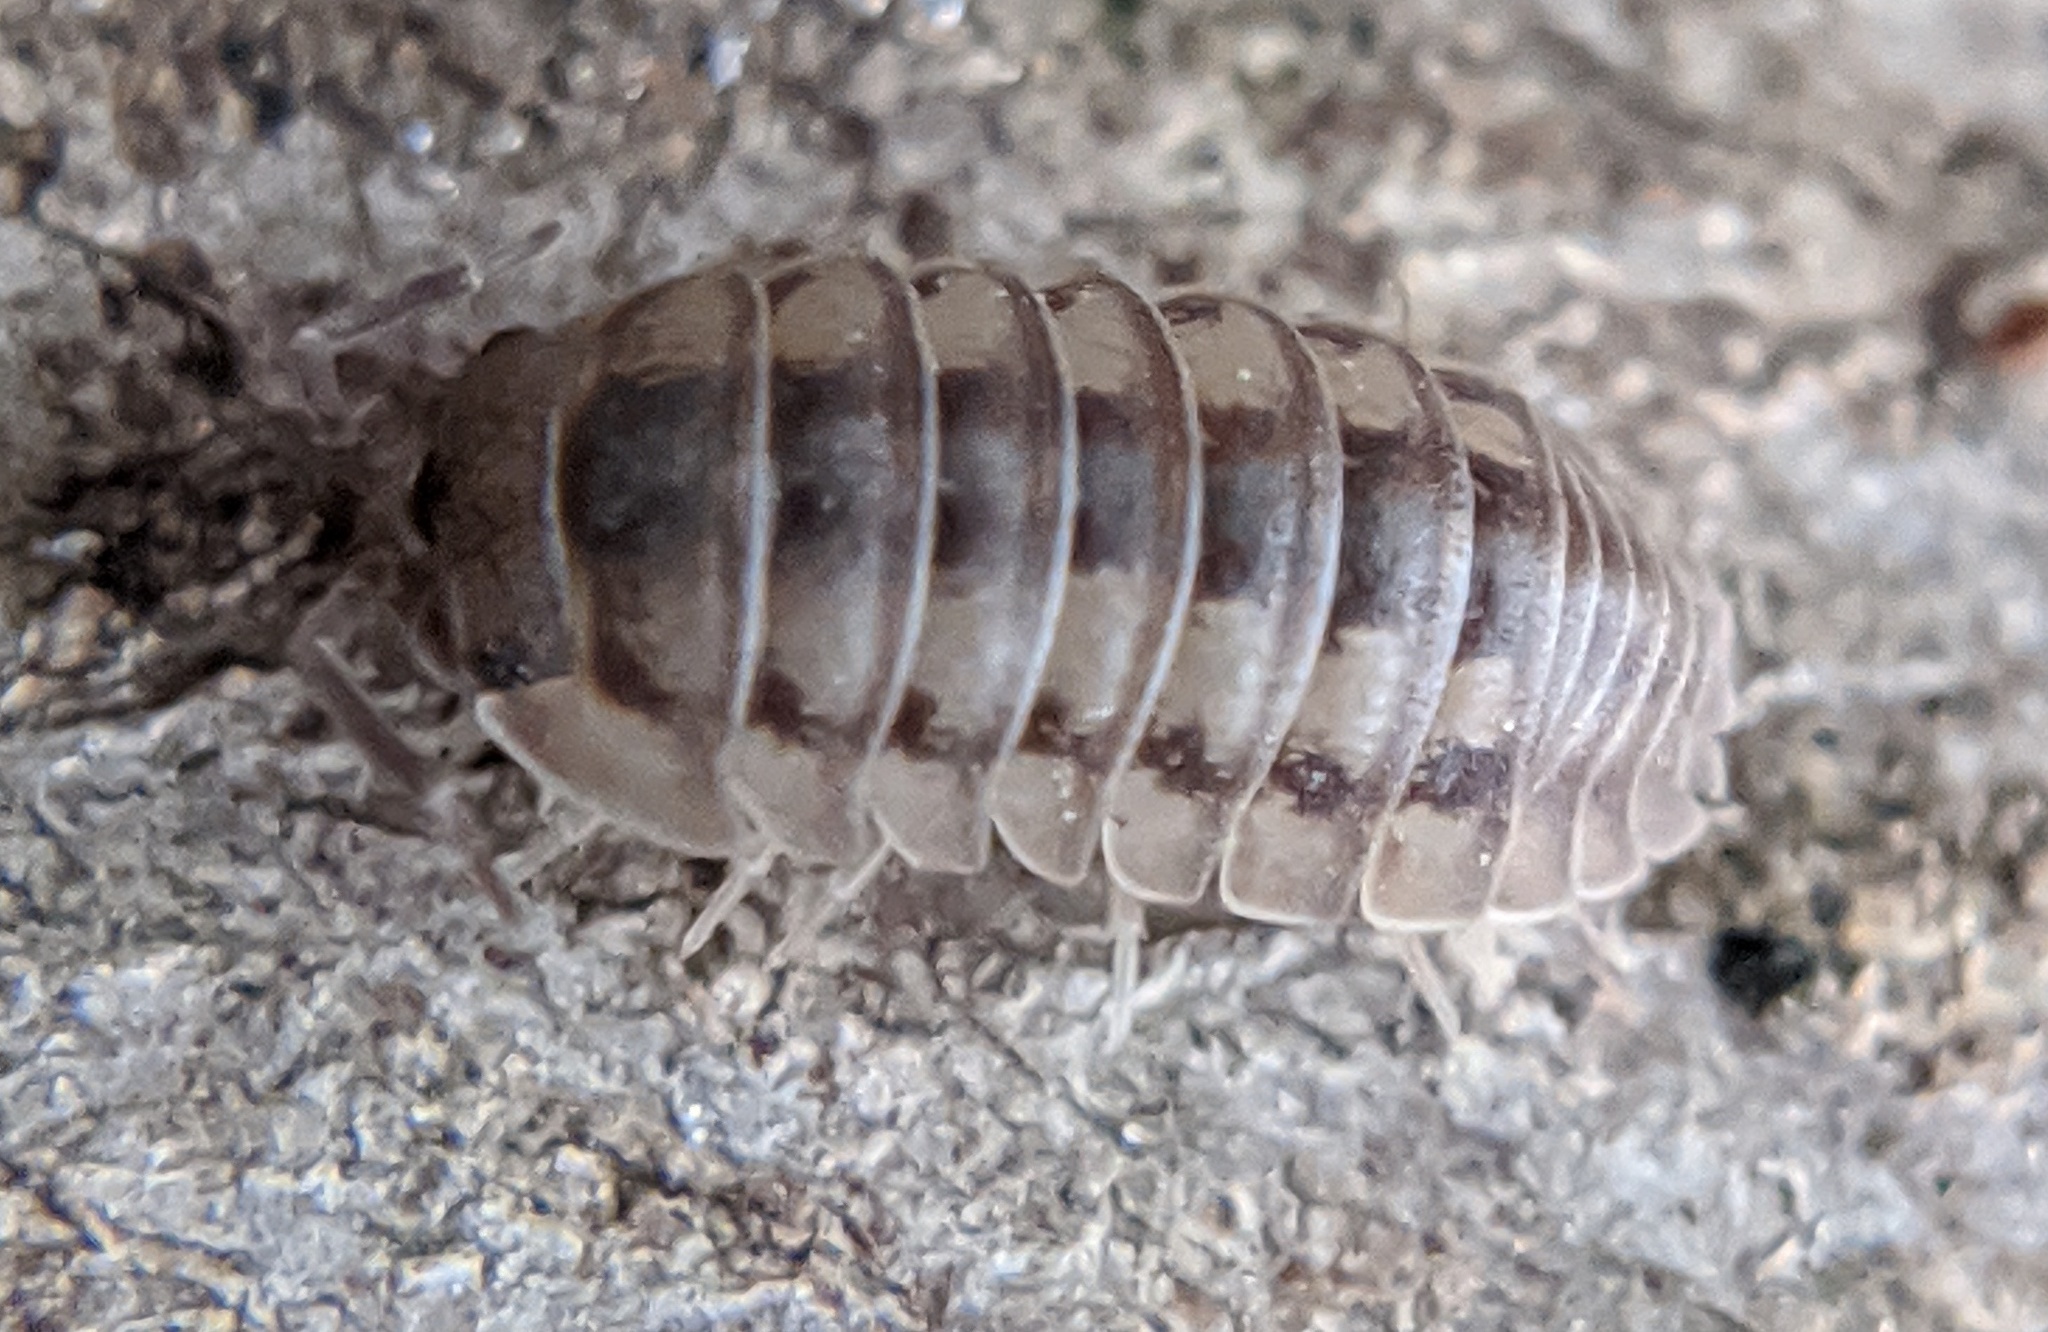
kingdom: Animalia
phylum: Arthropoda
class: Malacostraca
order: Isopoda
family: Armadillidiidae
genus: Armadillidium
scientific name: Armadillidium nasatum
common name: Isopod
